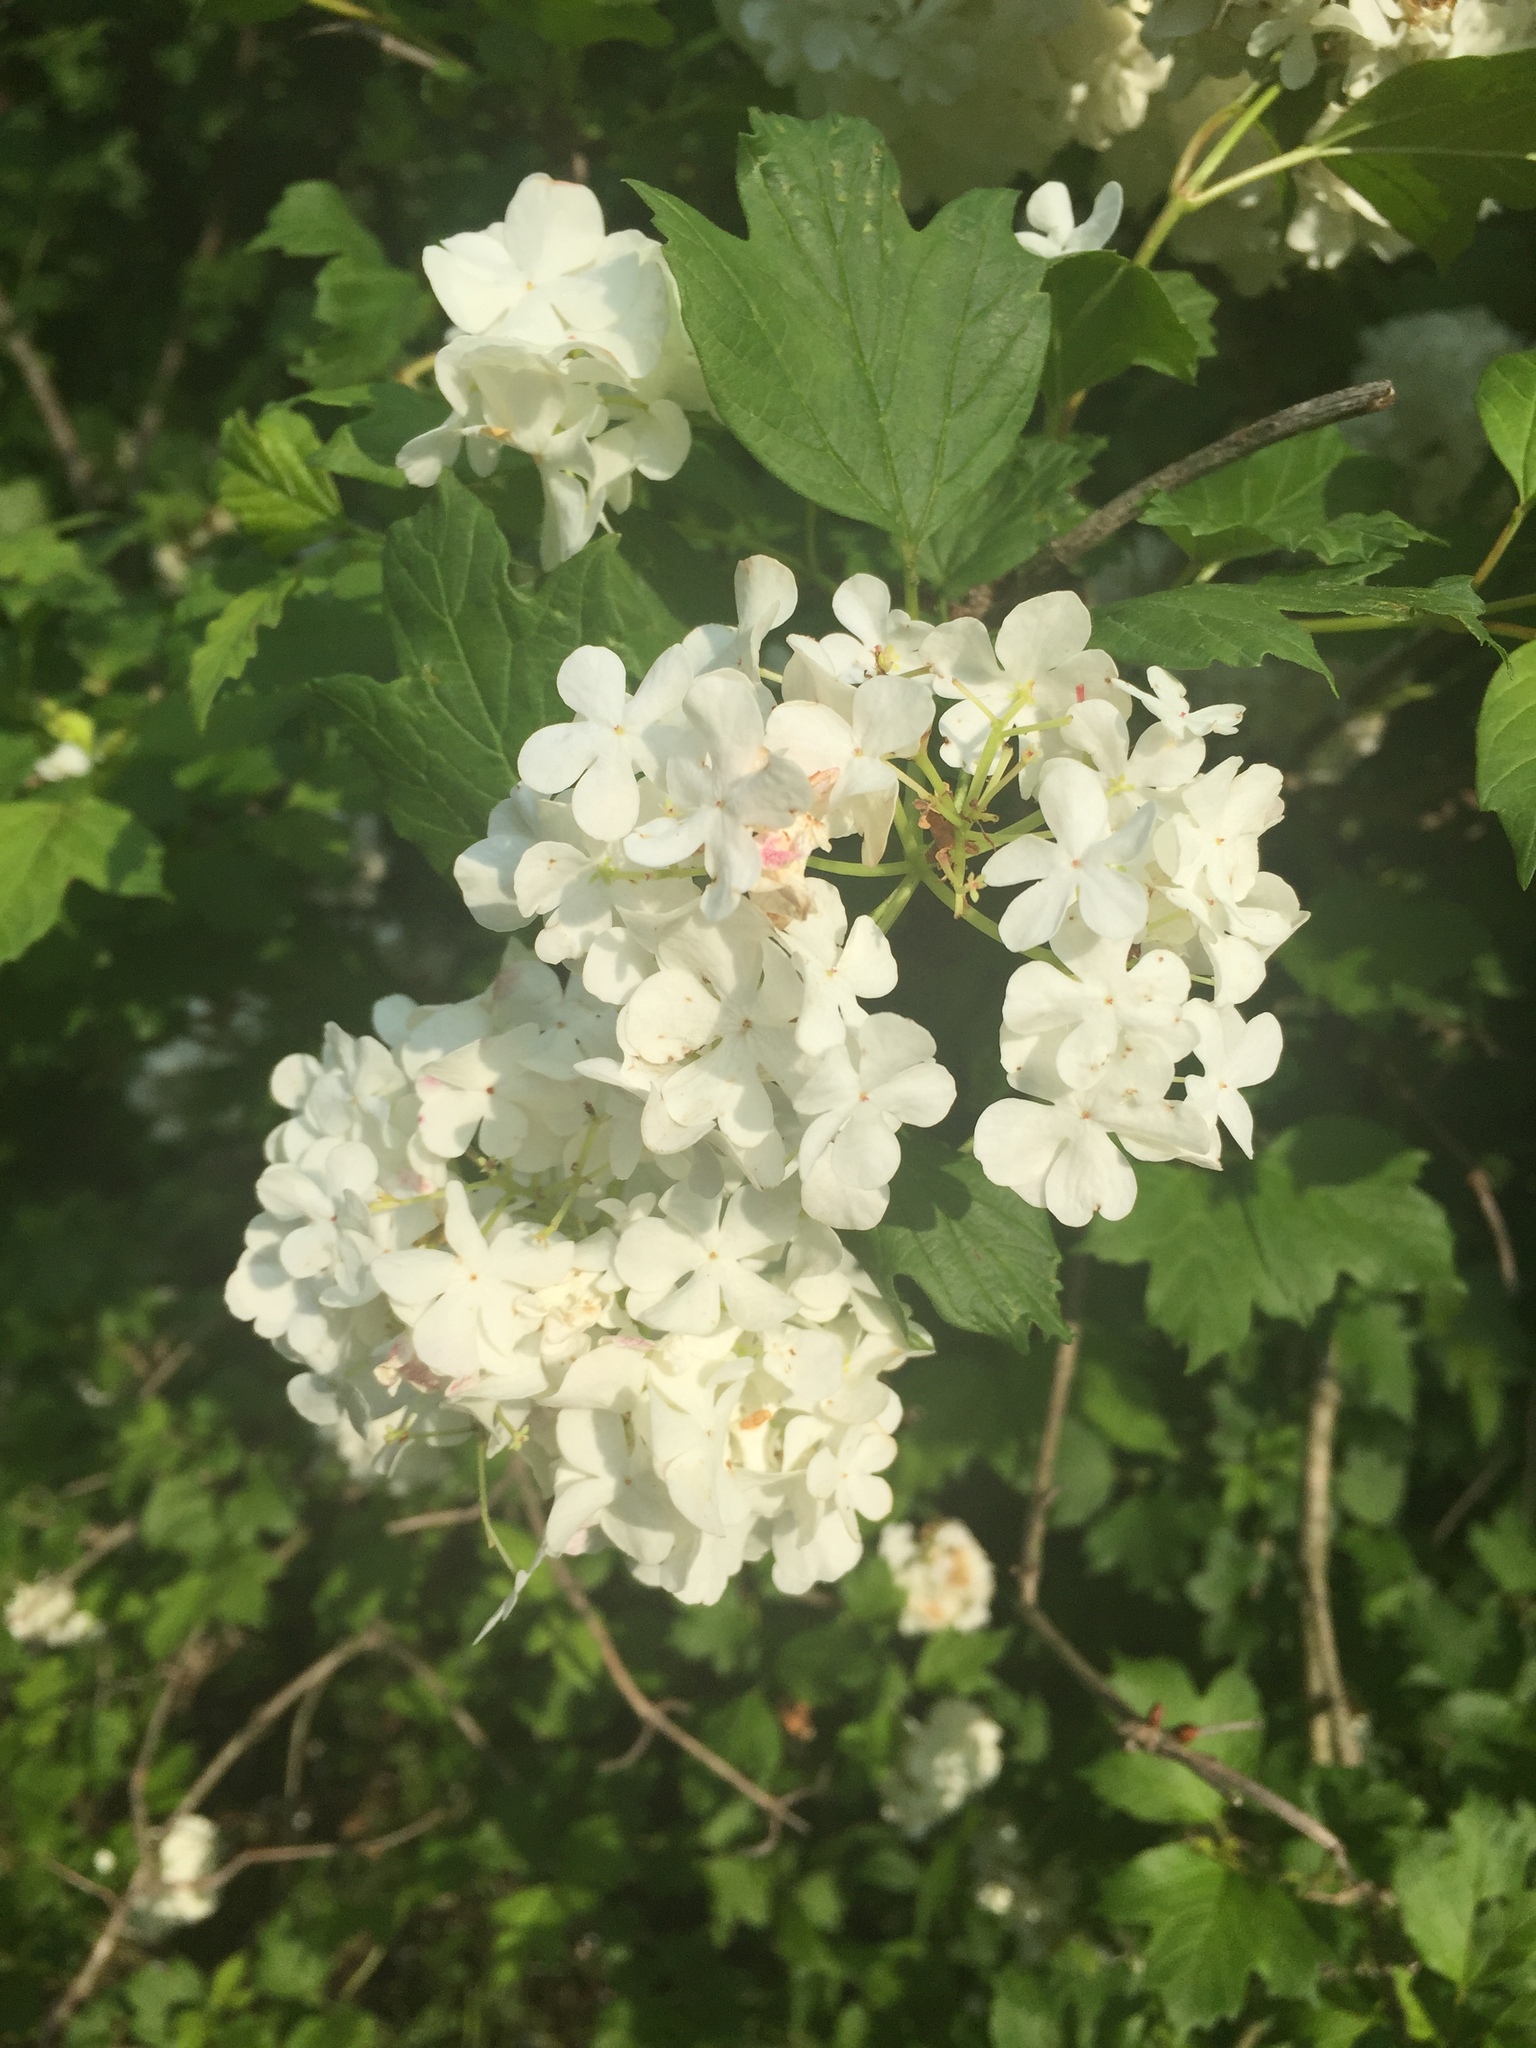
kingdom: Plantae
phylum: Tracheophyta
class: Magnoliopsida
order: Dipsacales
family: Viburnaceae
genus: Viburnum
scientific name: Viburnum opulus
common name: Guelder-rose
